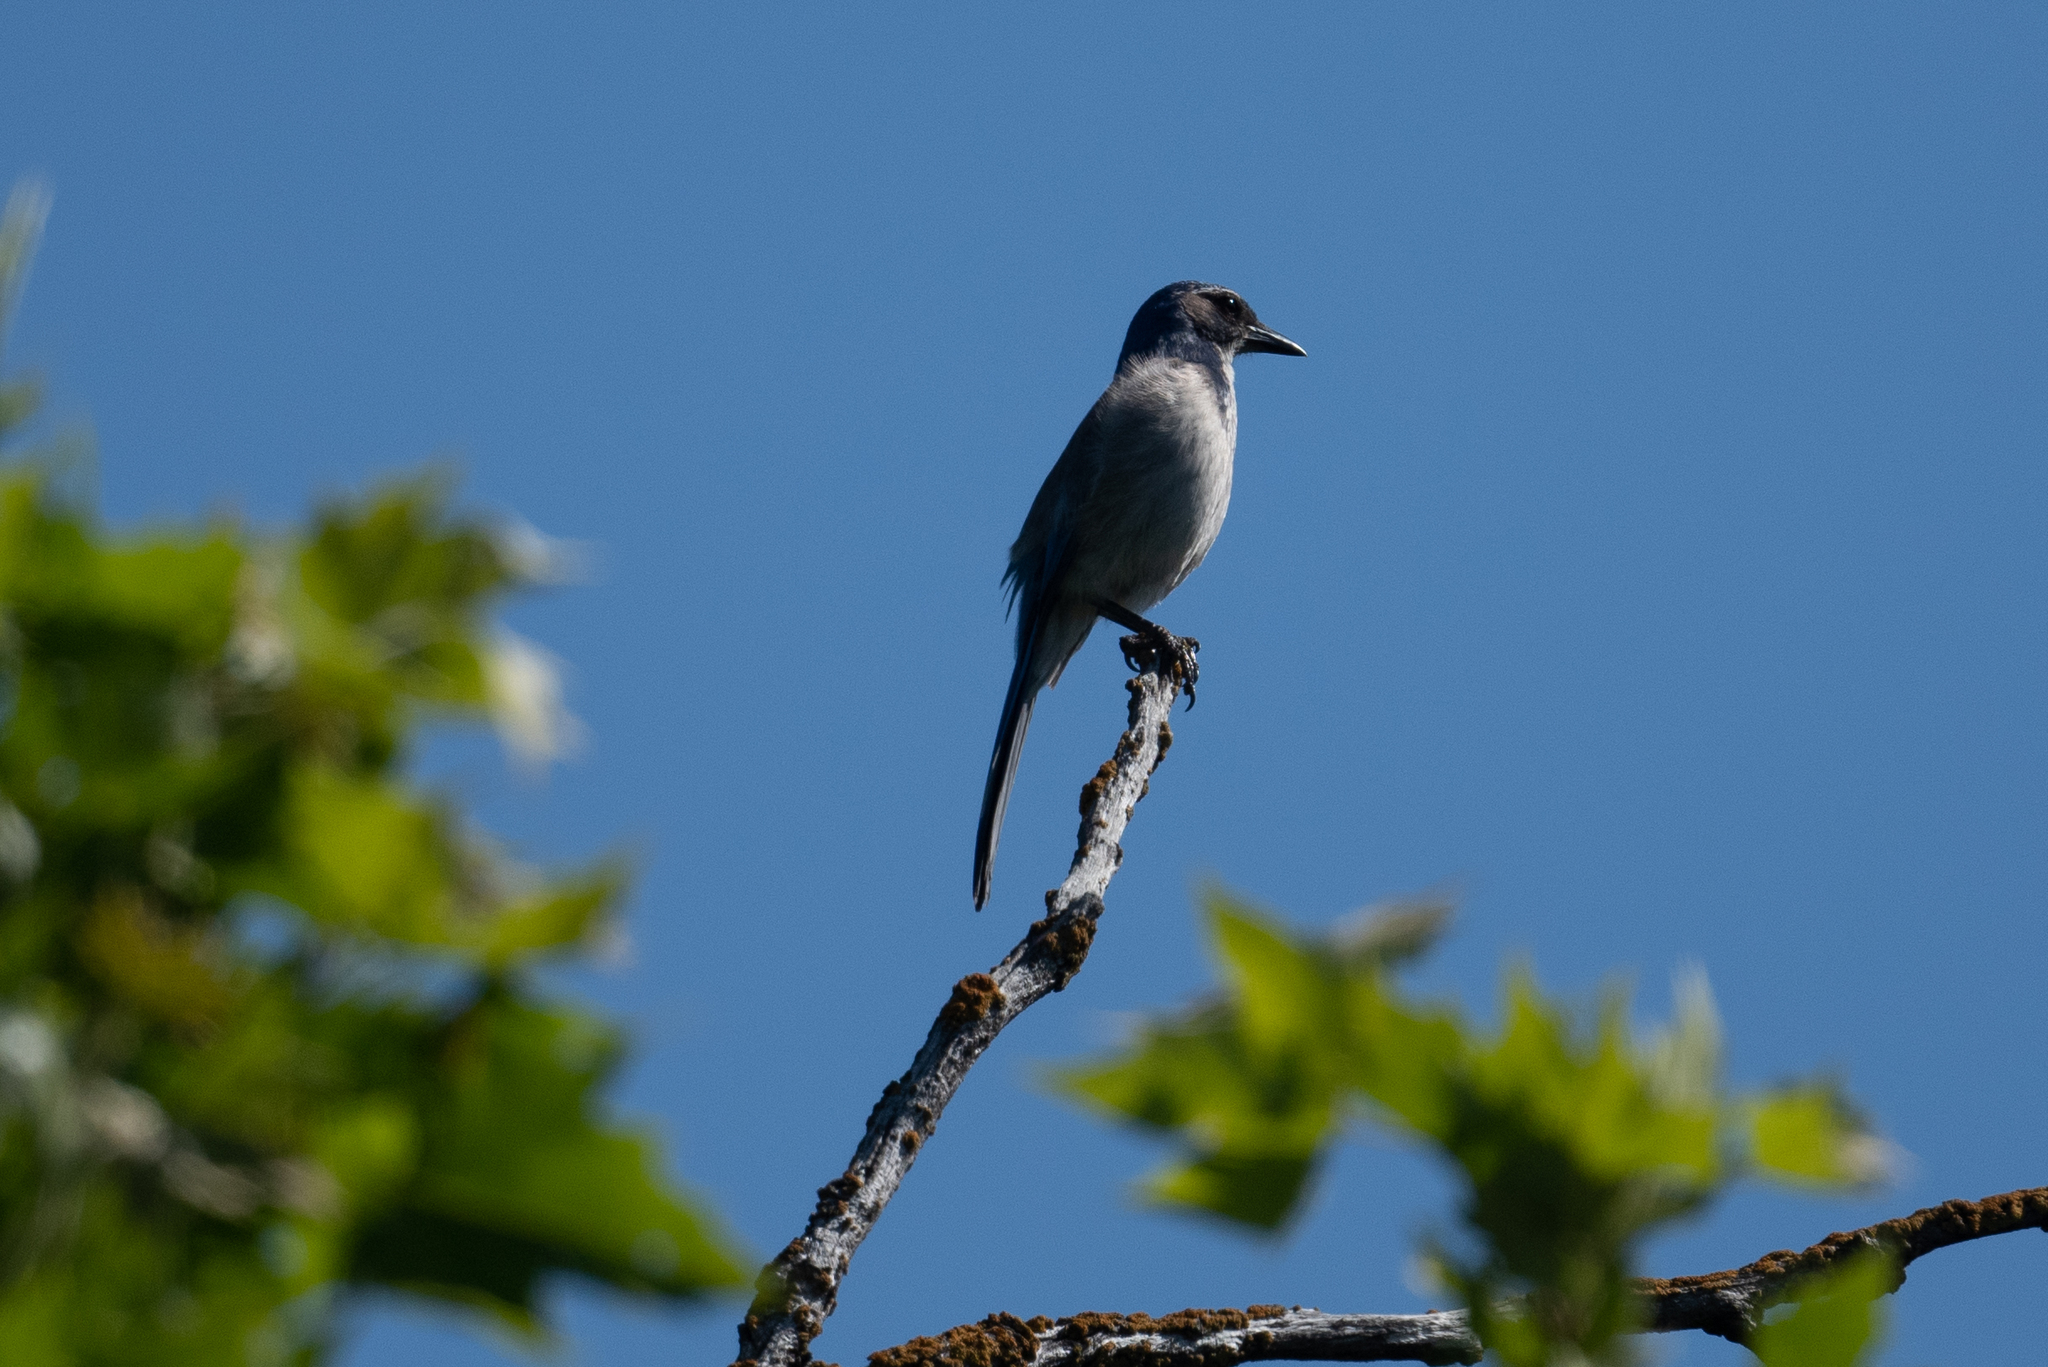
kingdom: Animalia
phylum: Chordata
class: Aves
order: Passeriformes
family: Corvidae
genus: Aphelocoma
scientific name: Aphelocoma californica
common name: California scrub-jay
